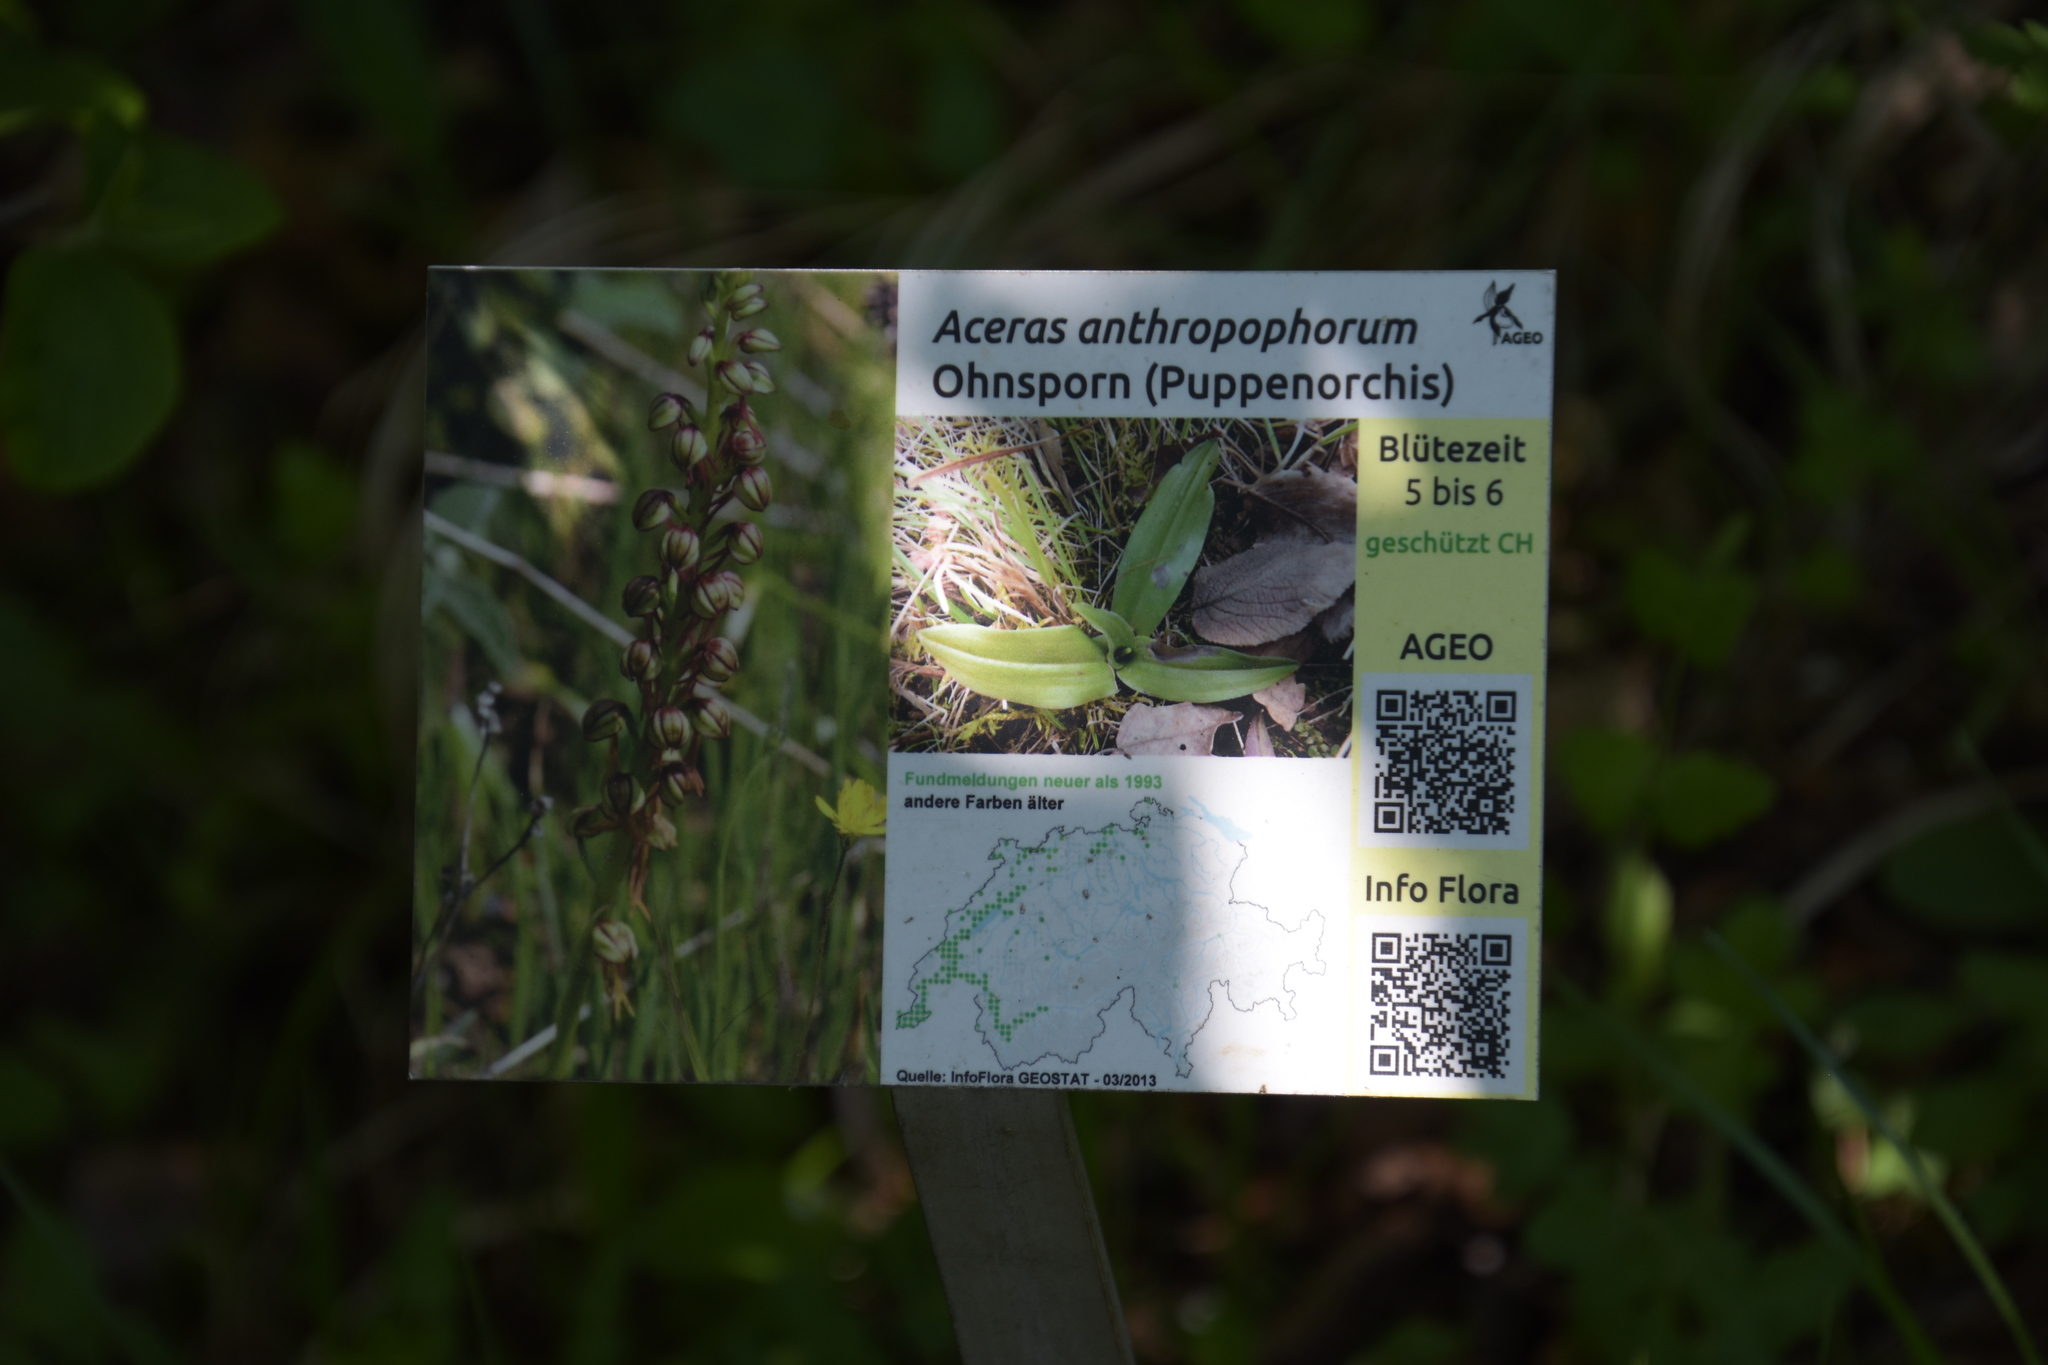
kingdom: Plantae
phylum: Tracheophyta
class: Liliopsida
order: Asparagales
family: Orchidaceae
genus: Orchis
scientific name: Orchis anthropophora
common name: Man orchid
